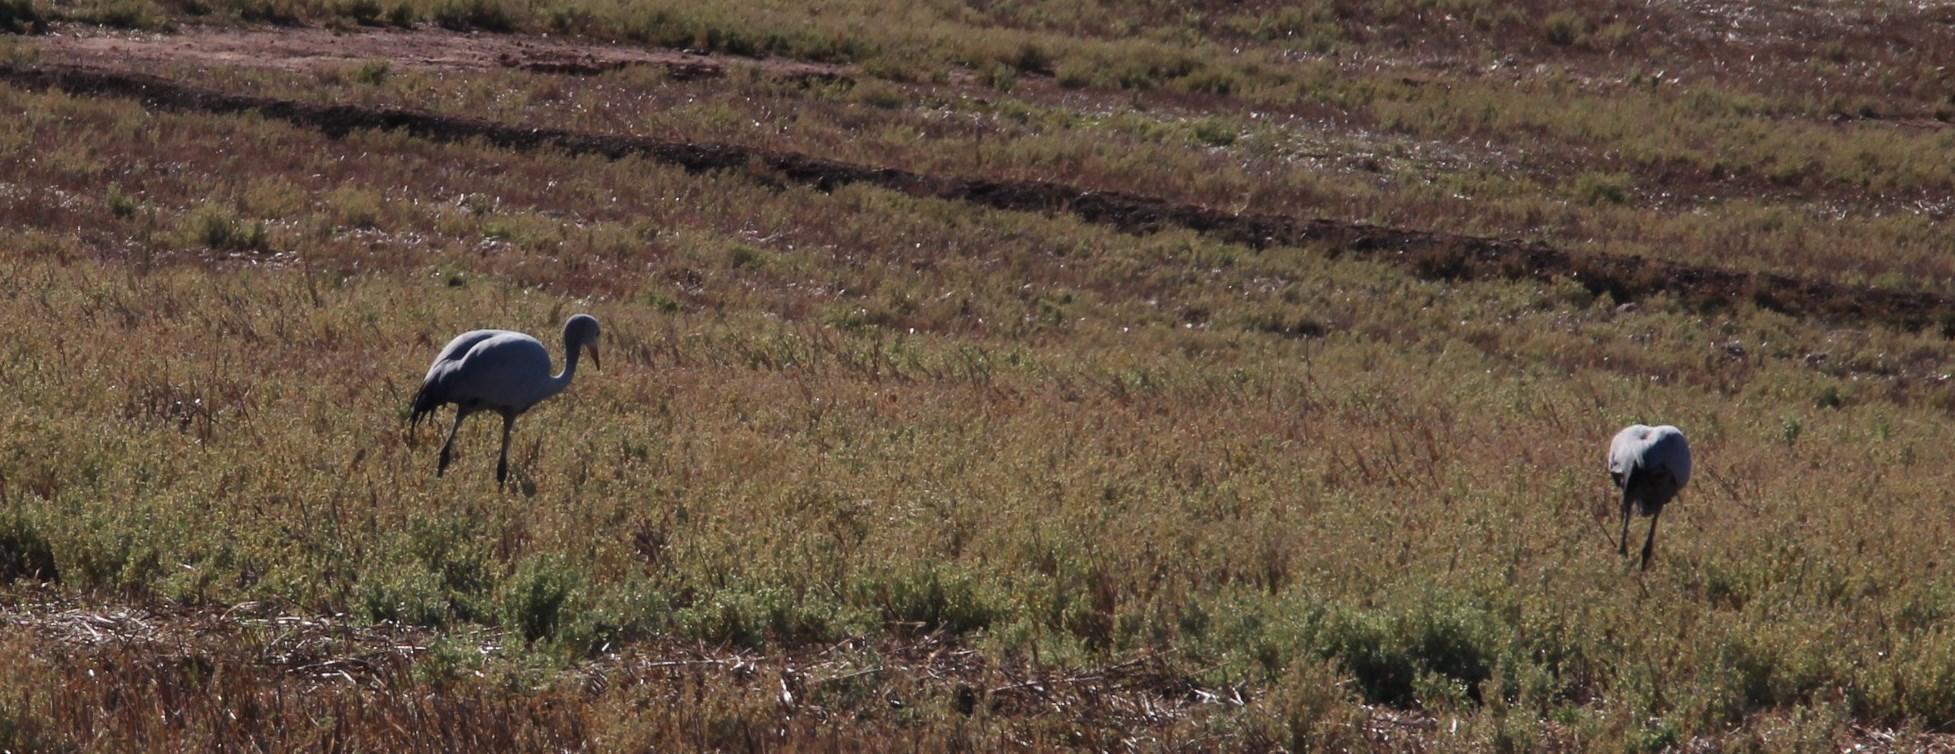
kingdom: Animalia
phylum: Chordata
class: Aves
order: Gruiformes
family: Gruidae
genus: Anthropoides
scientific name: Anthropoides paradiseus
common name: Blue crane
